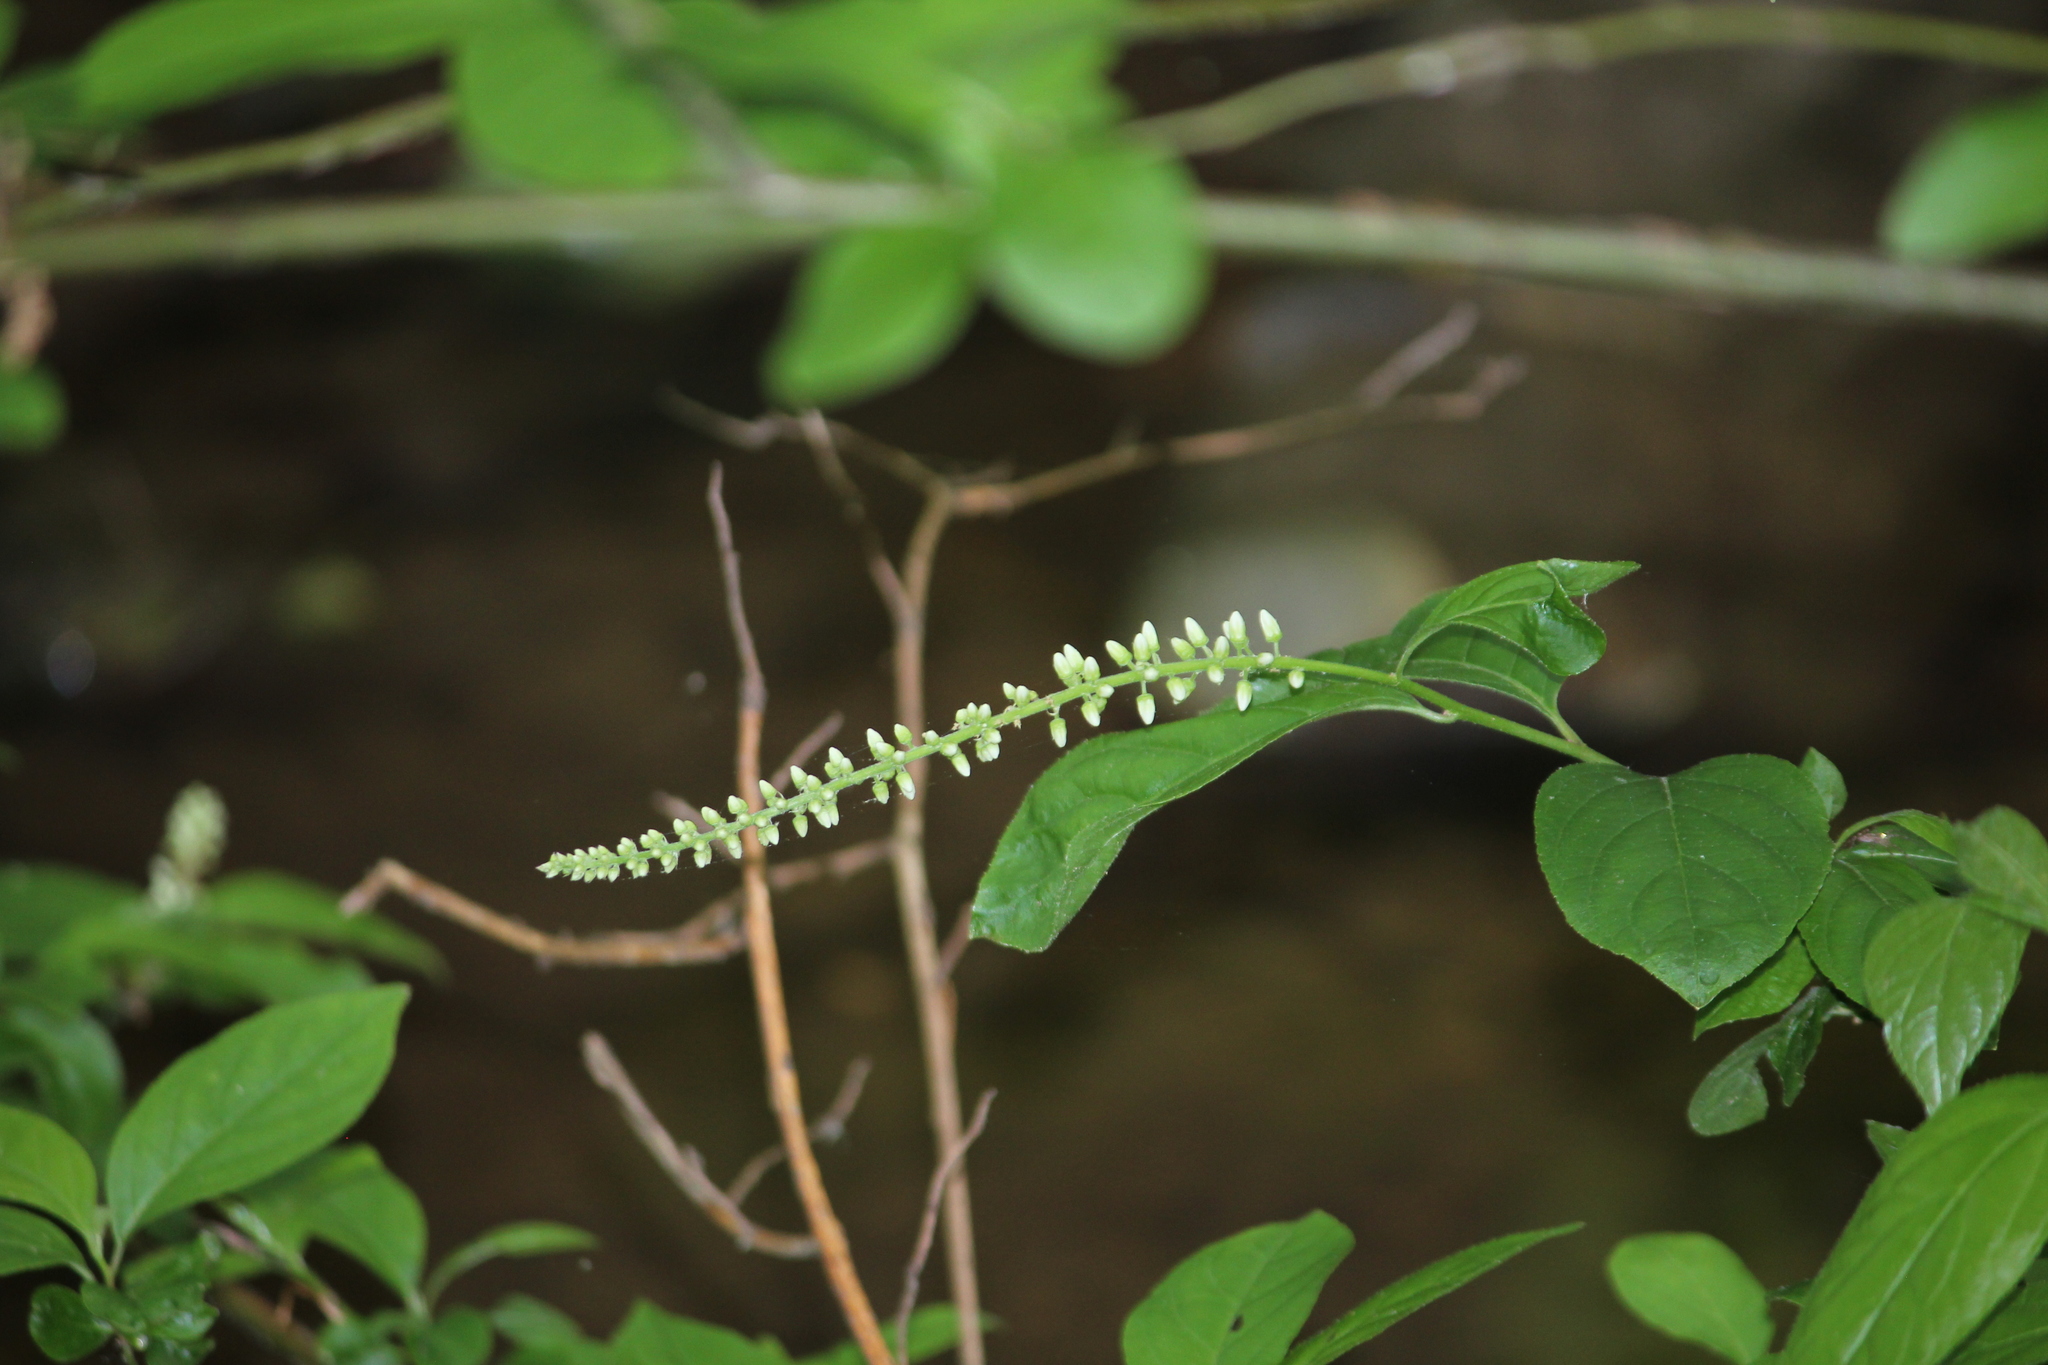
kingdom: Plantae
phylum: Tracheophyta
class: Magnoliopsida
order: Saxifragales
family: Iteaceae
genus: Itea
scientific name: Itea virginica
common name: Sweetspire
